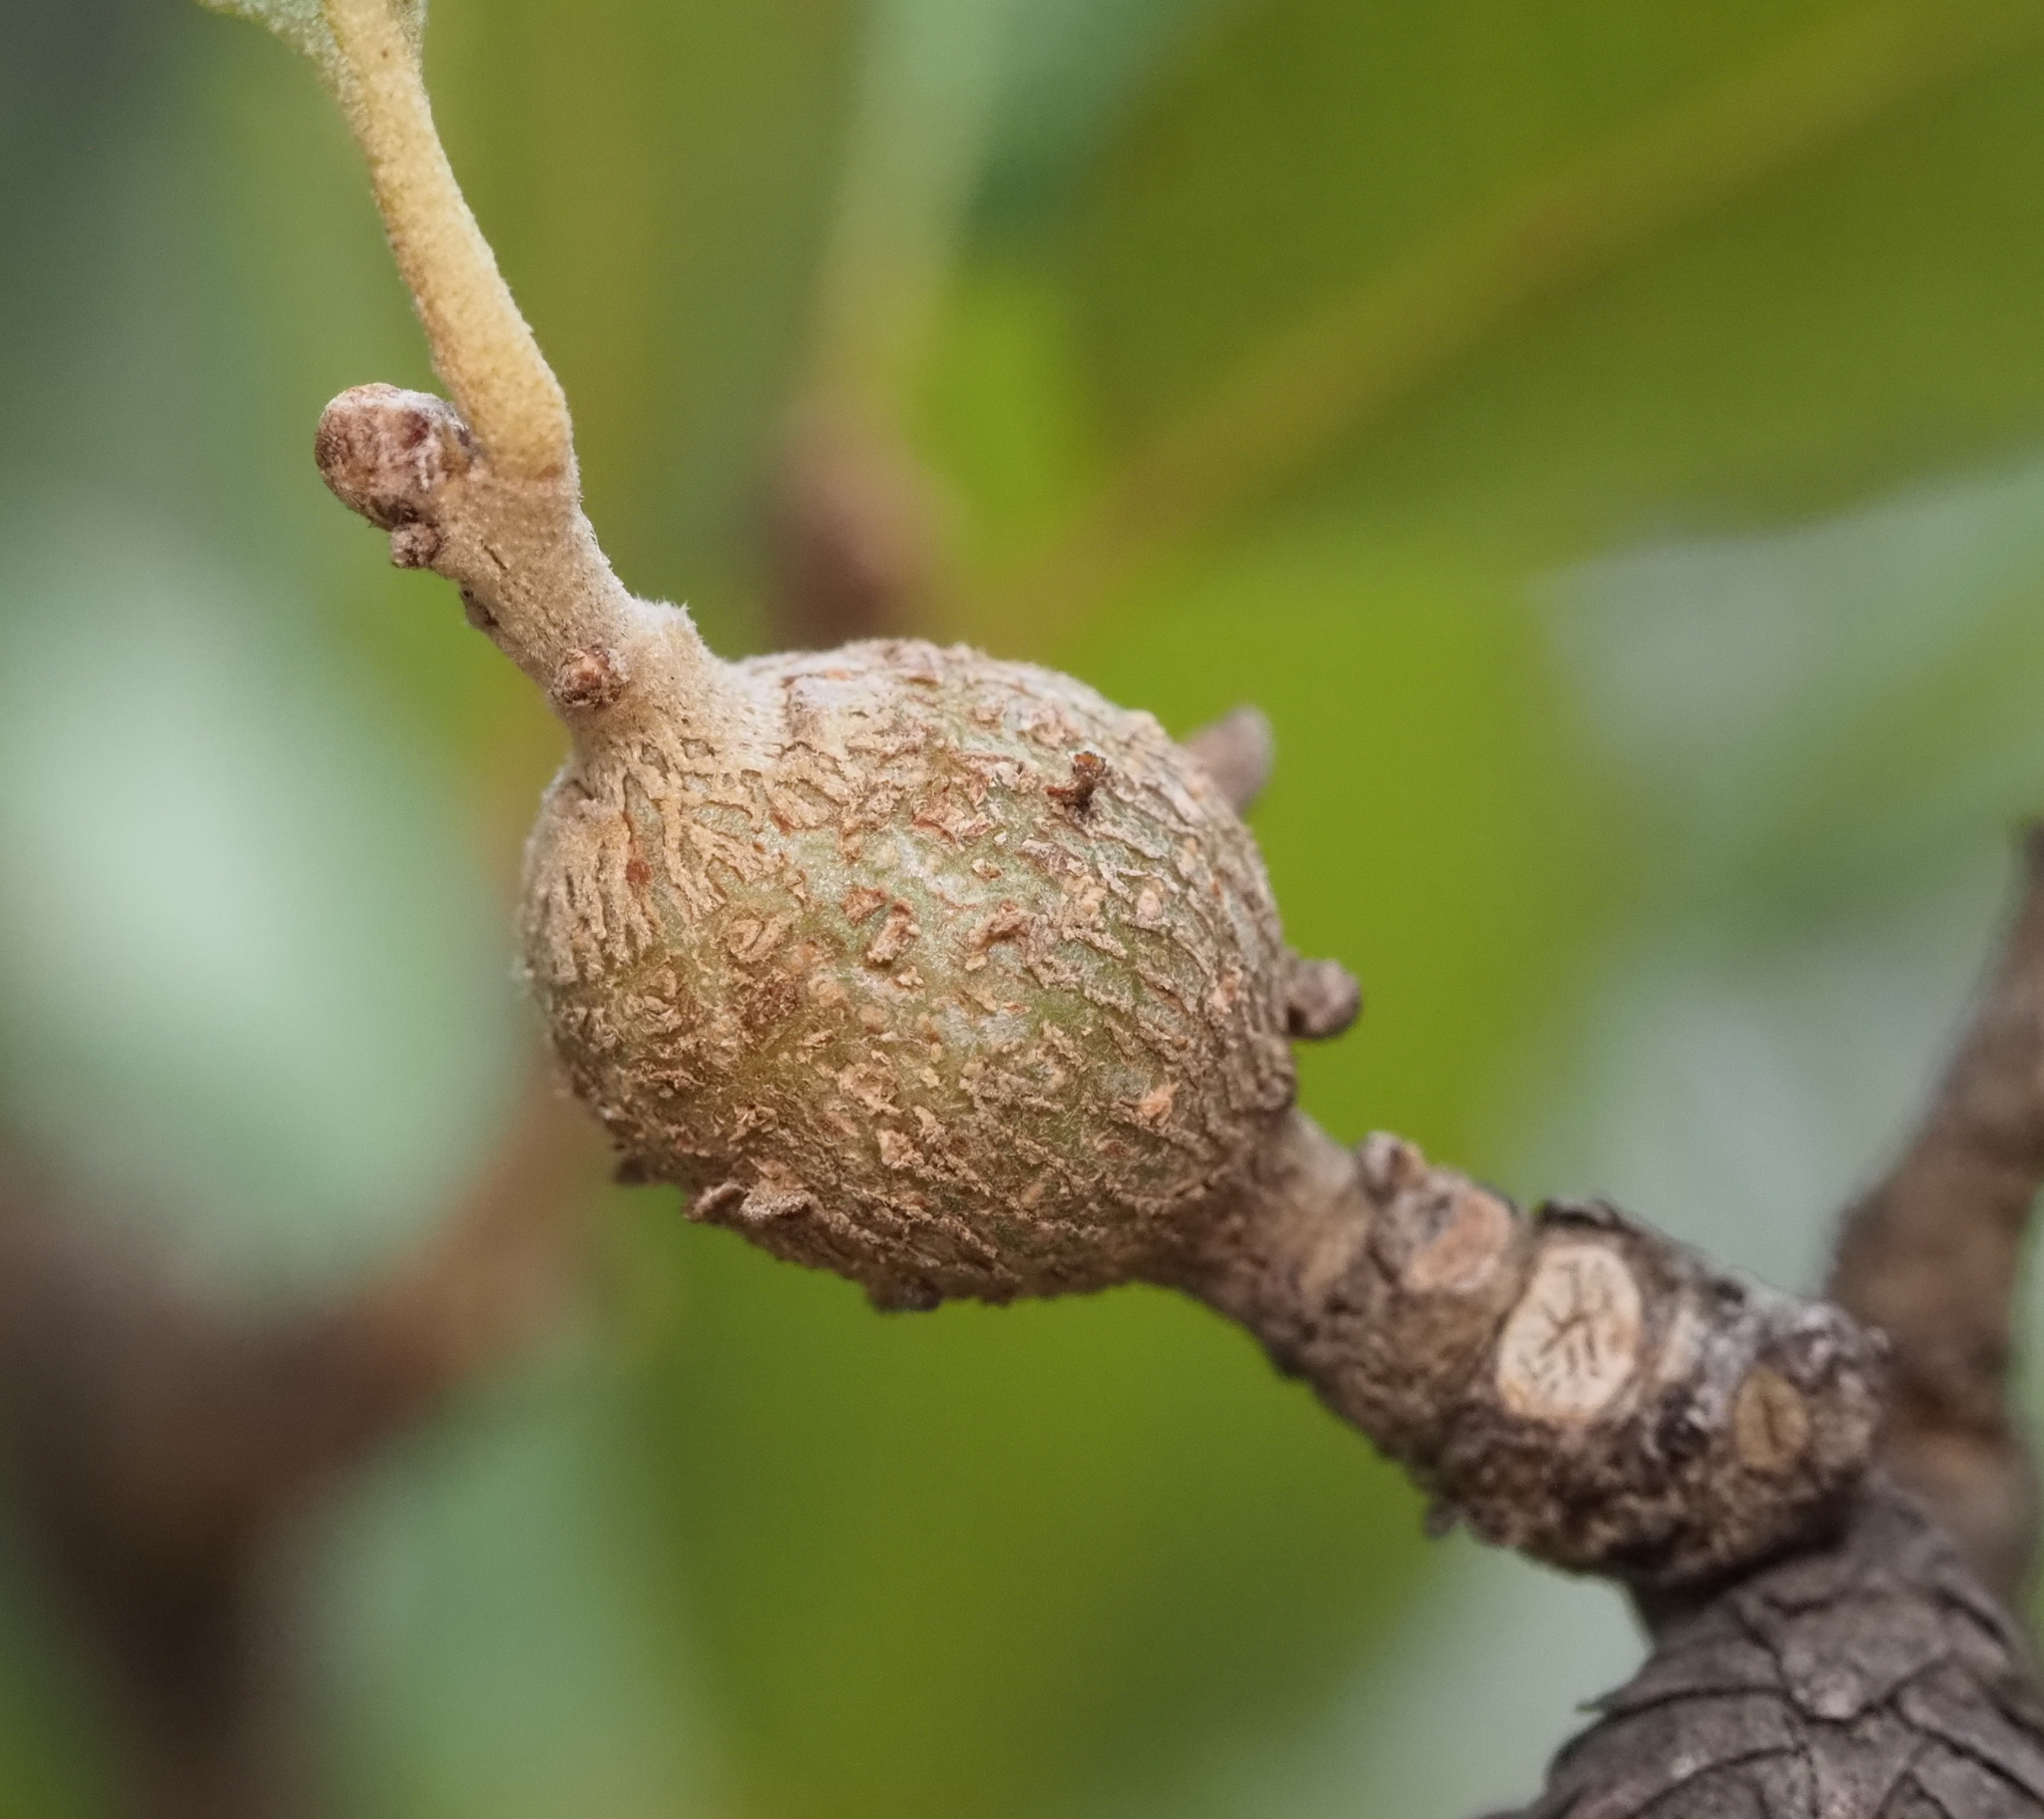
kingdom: Animalia
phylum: Arthropoda
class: Insecta
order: Hymenoptera
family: Cynipidae
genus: Callirhytis
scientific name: Callirhytis
